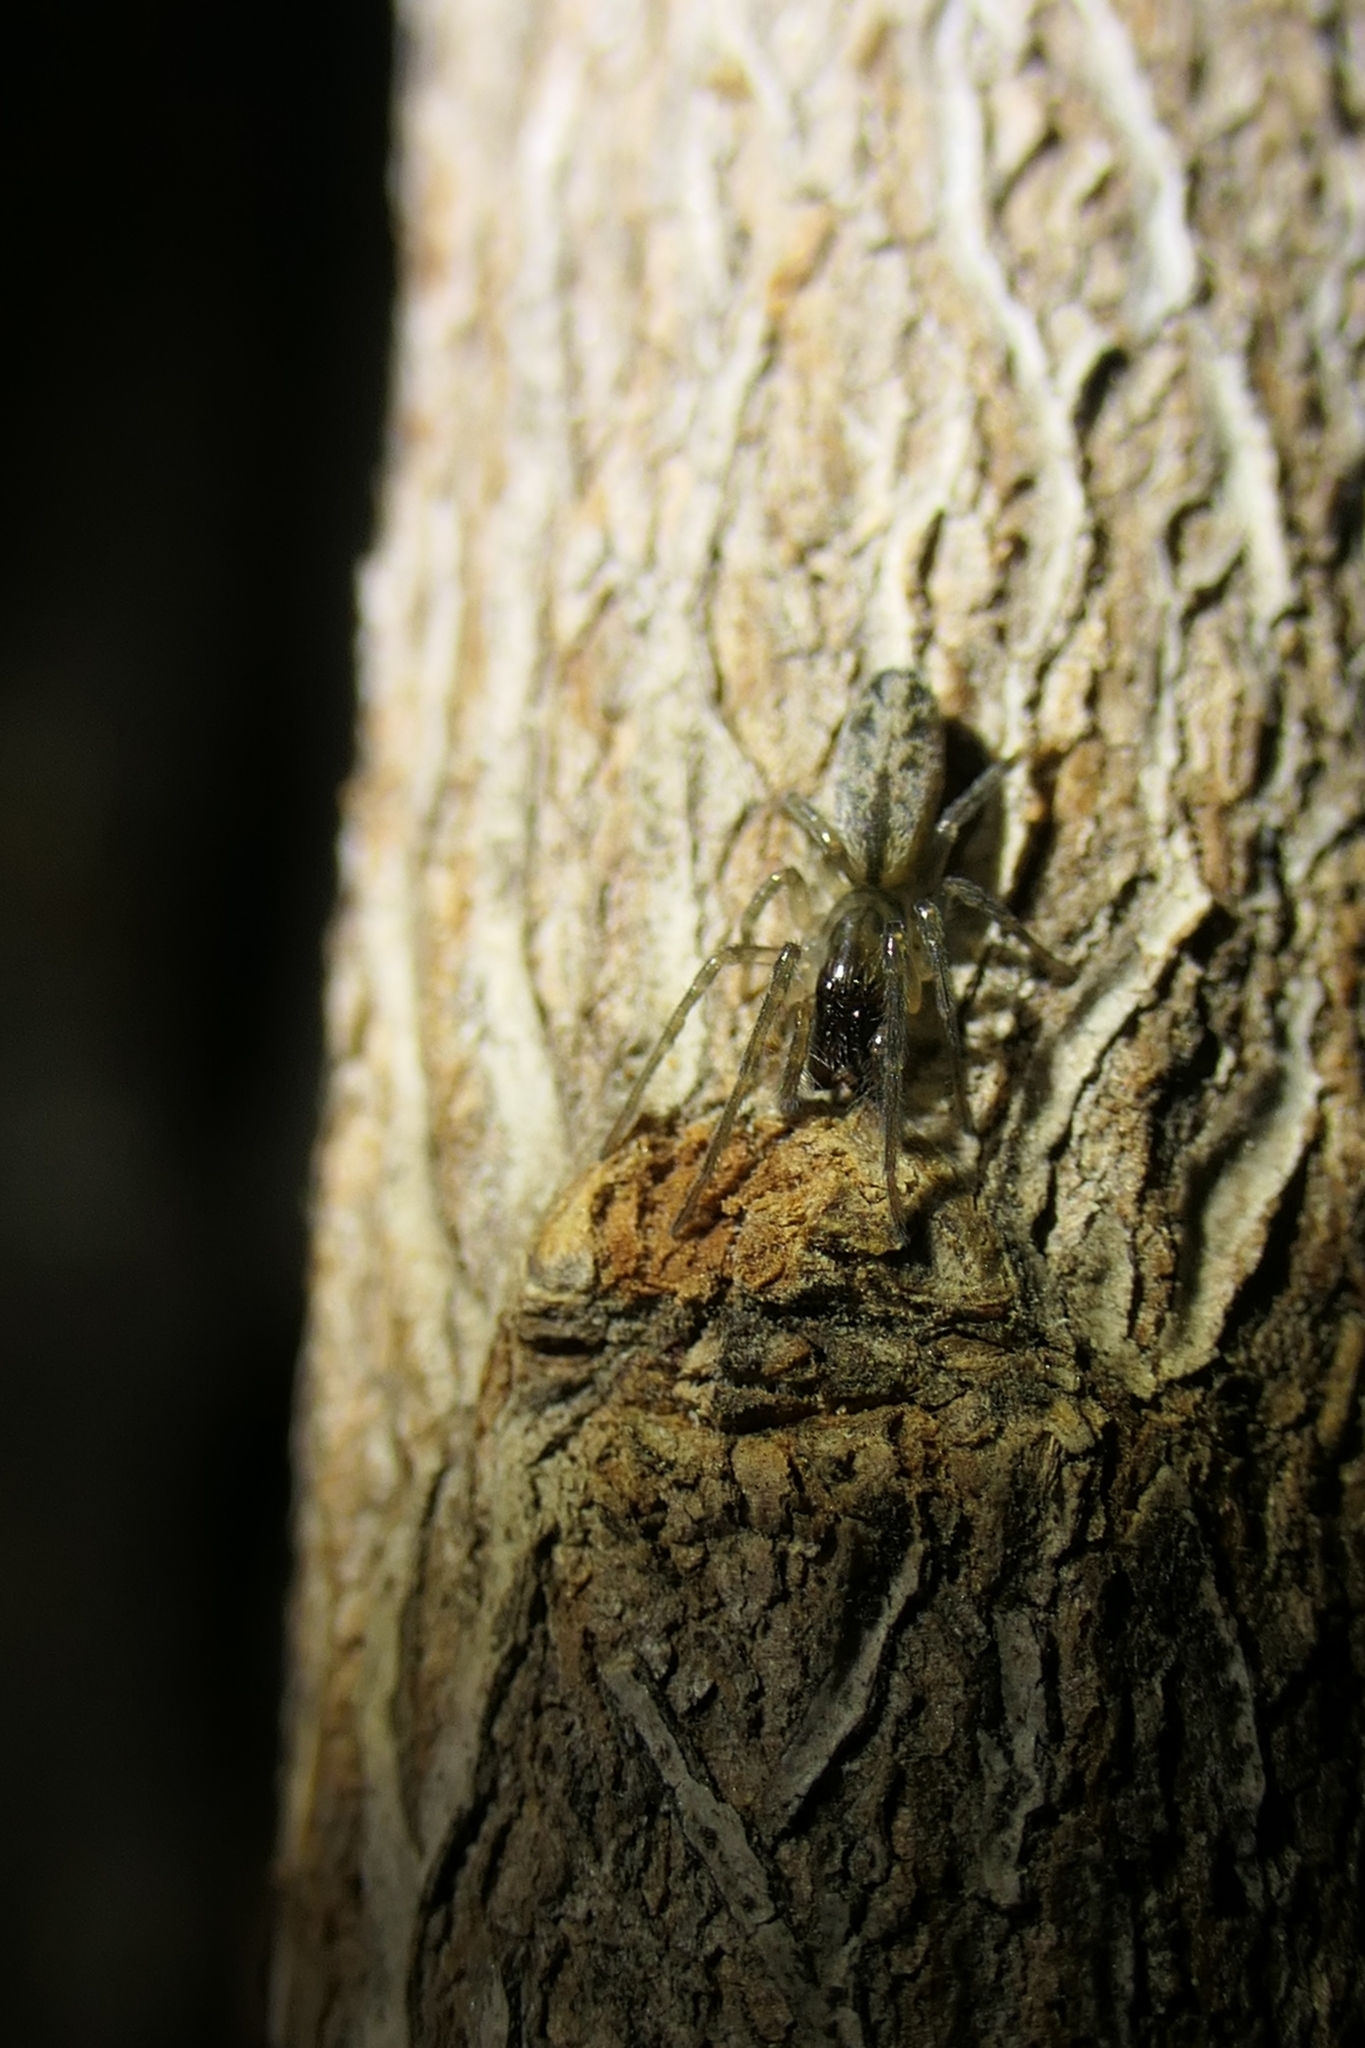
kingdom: Animalia
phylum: Arthropoda
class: Arachnida
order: Araneae
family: Desidae
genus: Notomatachia
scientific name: Notomatachia hirsuta
